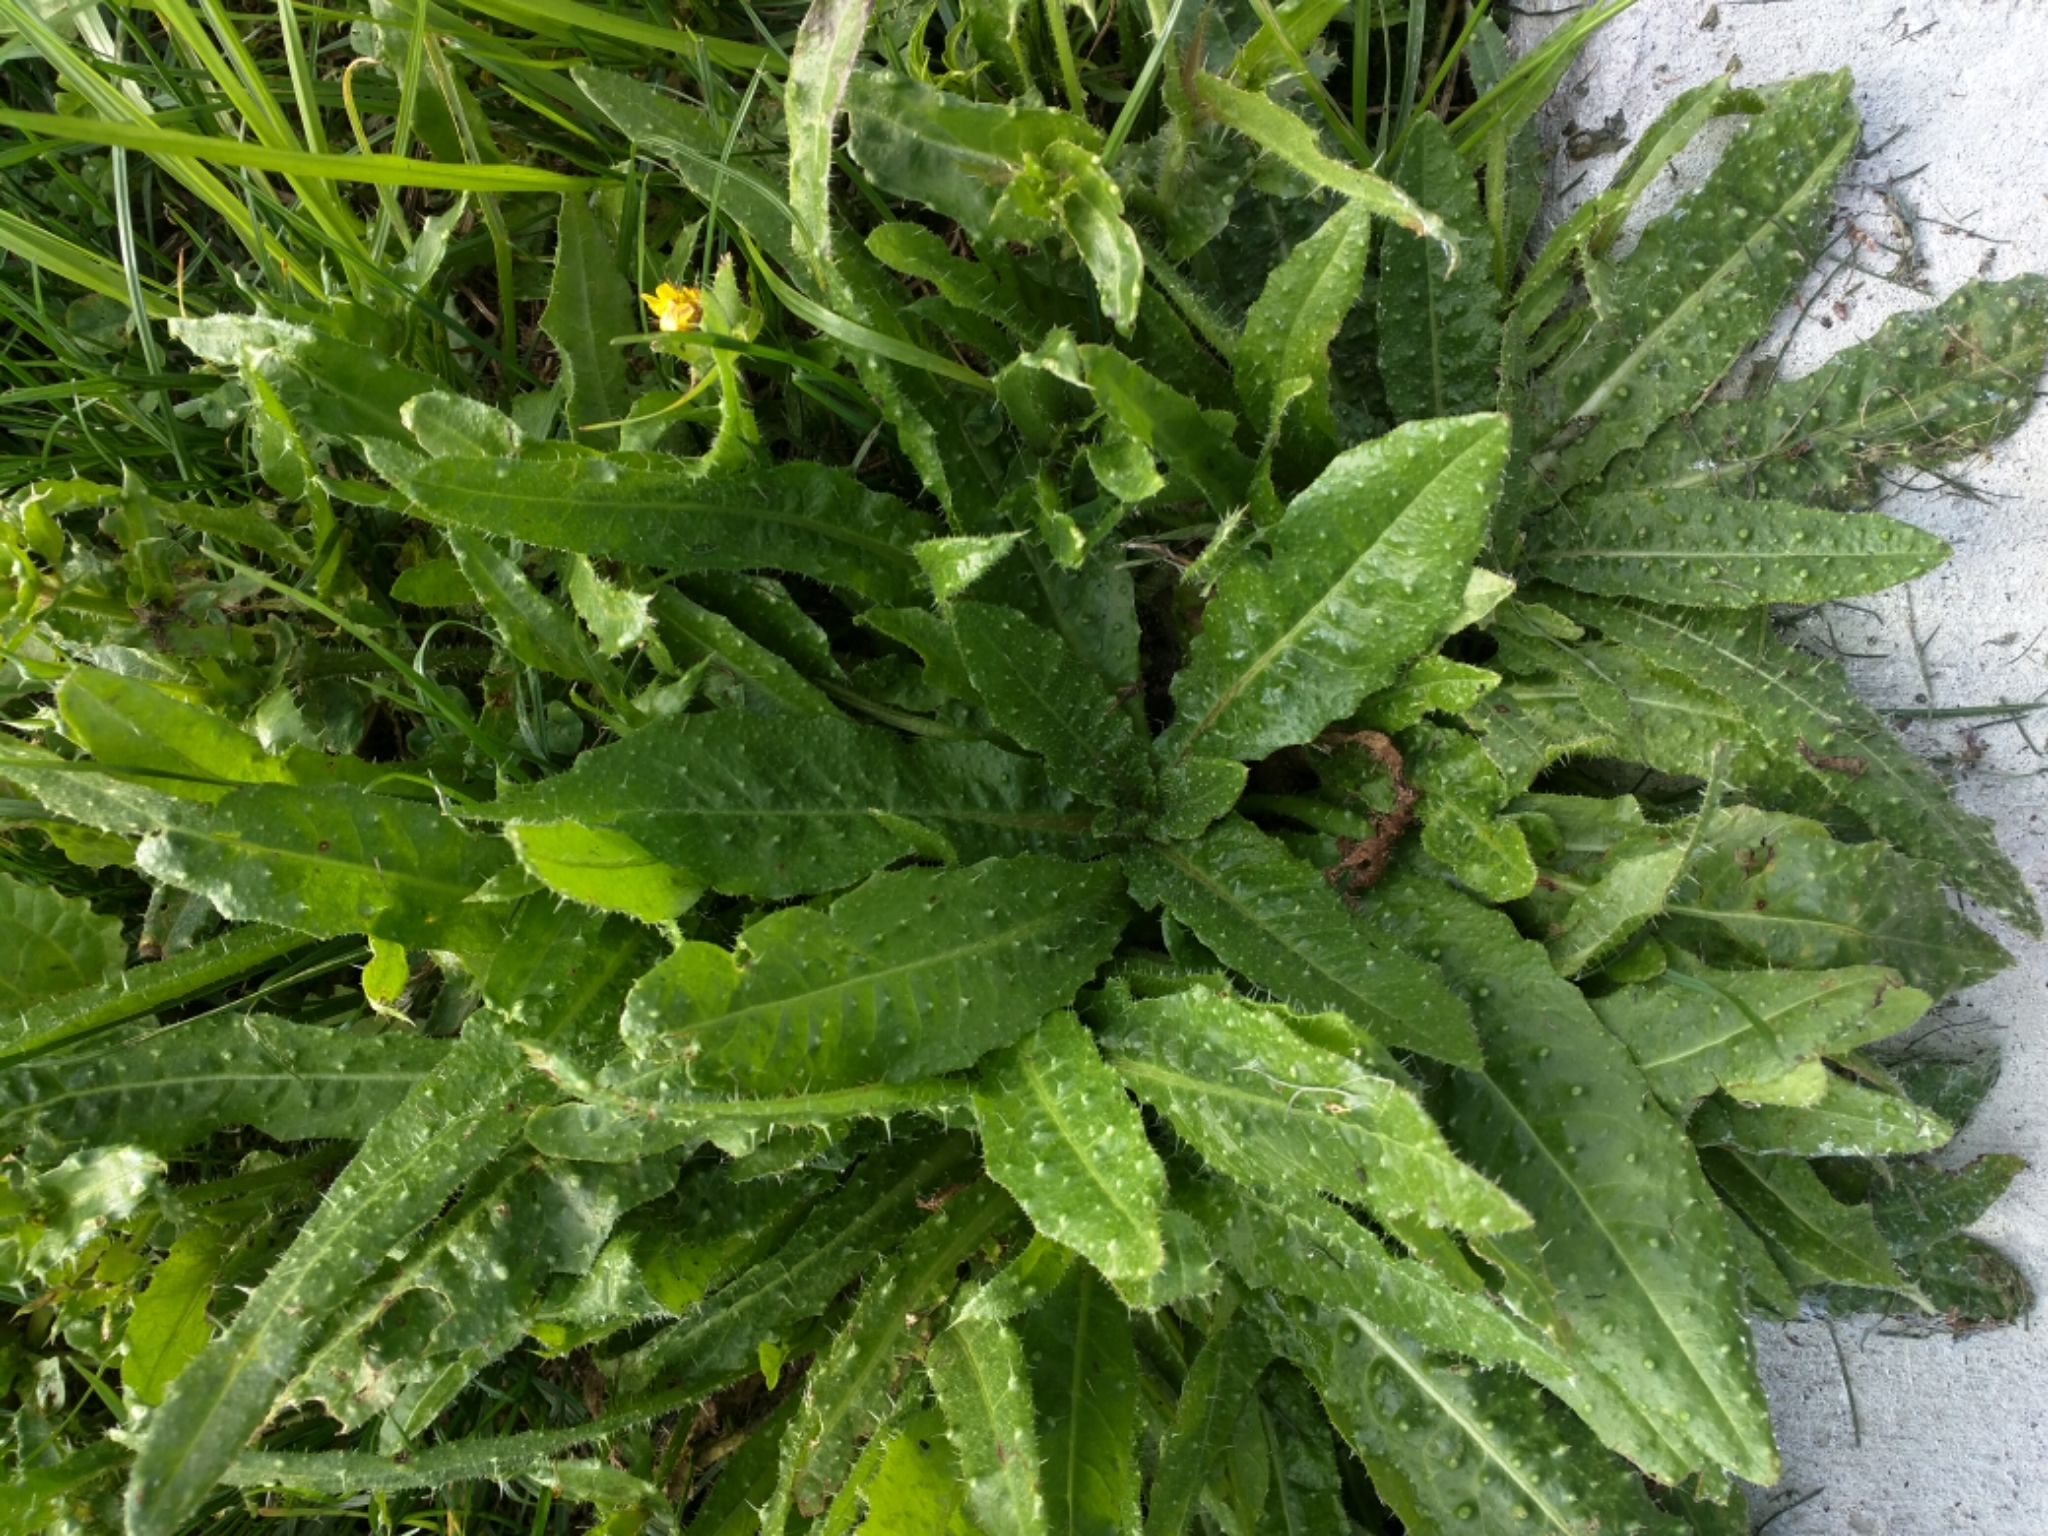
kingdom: Plantae
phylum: Tracheophyta
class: Magnoliopsida
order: Asterales
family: Asteraceae
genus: Helminthotheca
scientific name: Helminthotheca echioides
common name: Ox-tongue
